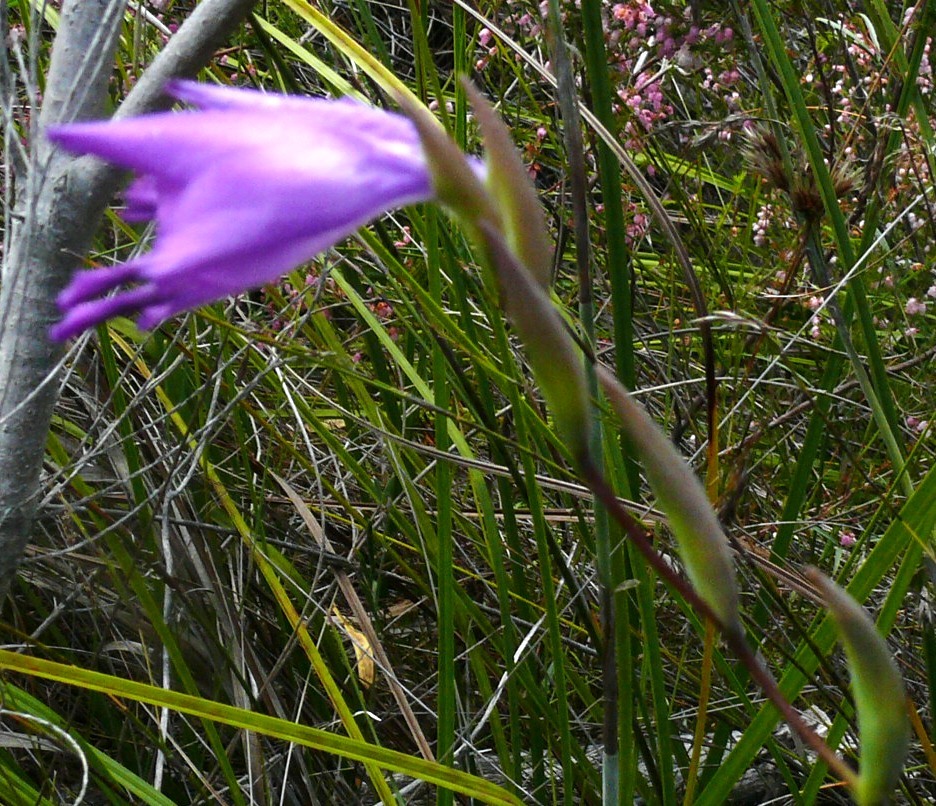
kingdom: Plantae
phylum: Tracheophyta
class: Liliopsida
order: Asparagales
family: Iridaceae
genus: Gladiolus
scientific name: Gladiolus rogersii
